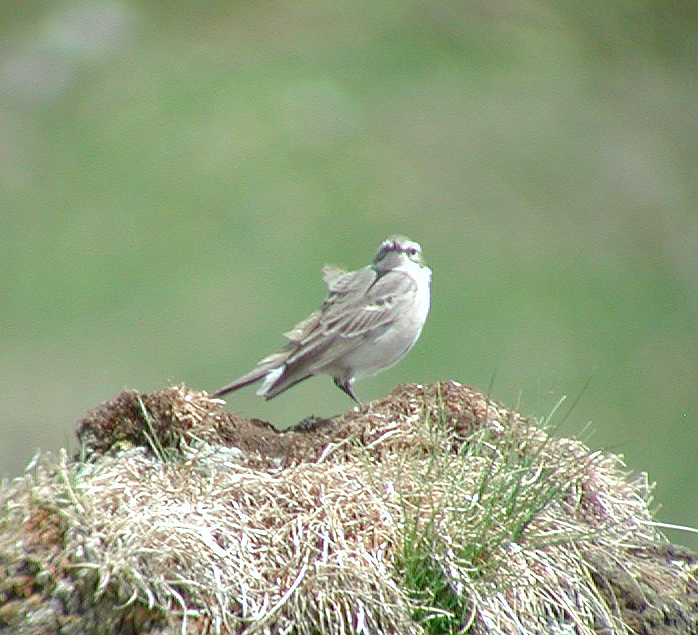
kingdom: Animalia
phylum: Chordata
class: Aves
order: Passeriformes
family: Motacillidae
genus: Anthus
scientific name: Anthus spinoletta
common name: Water pipit
